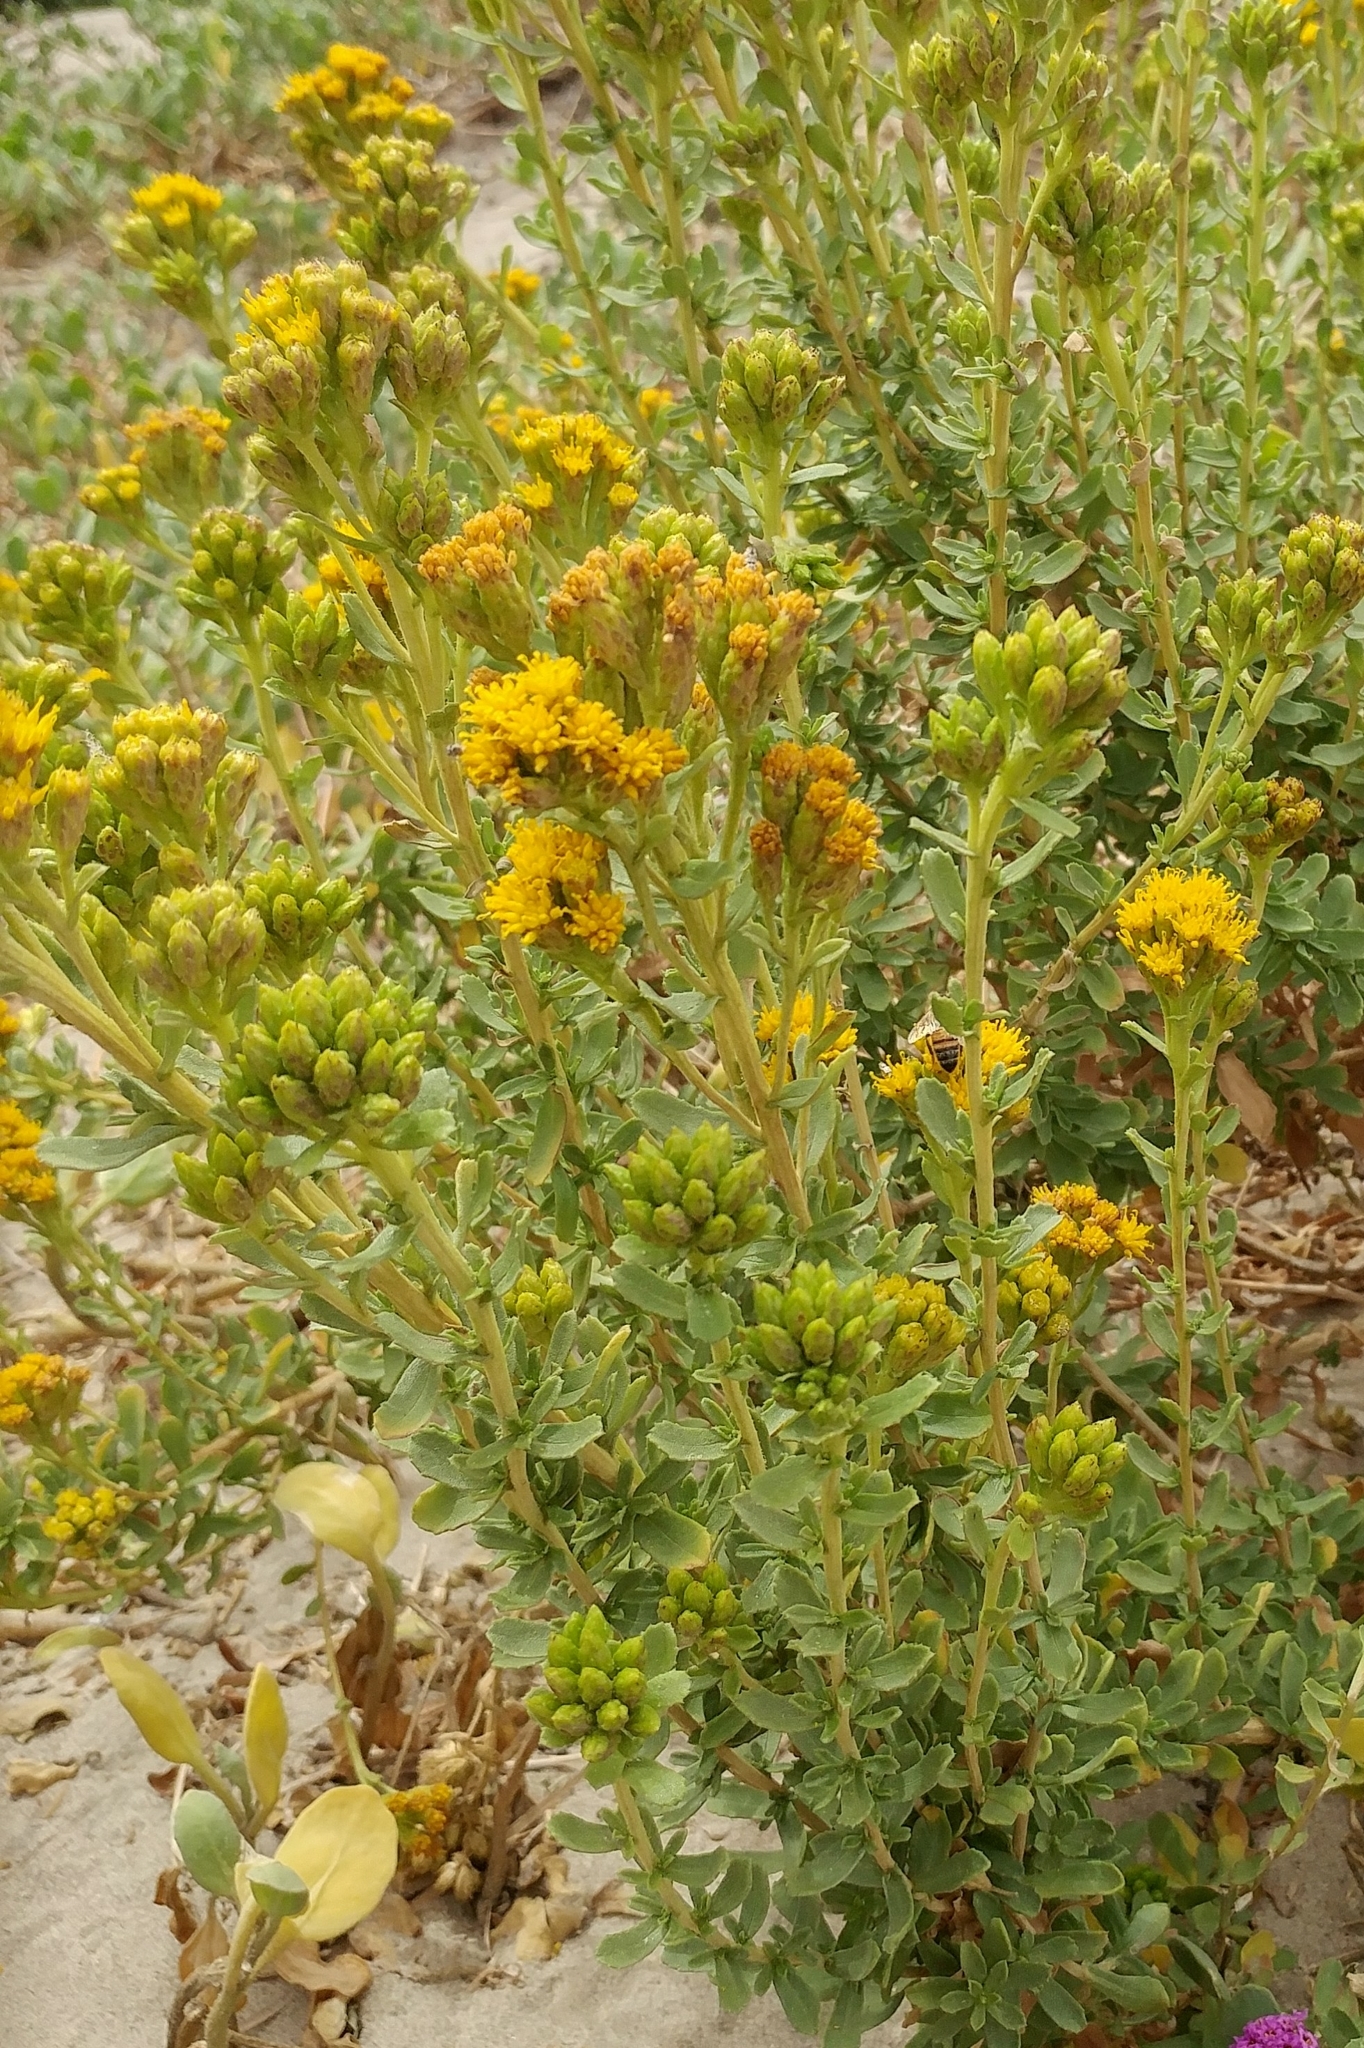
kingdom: Plantae
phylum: Tracheophyta
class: Magnoliopsida
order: Asterales
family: Asteraceae
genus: Isocoma
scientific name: Isocoma menziesii
